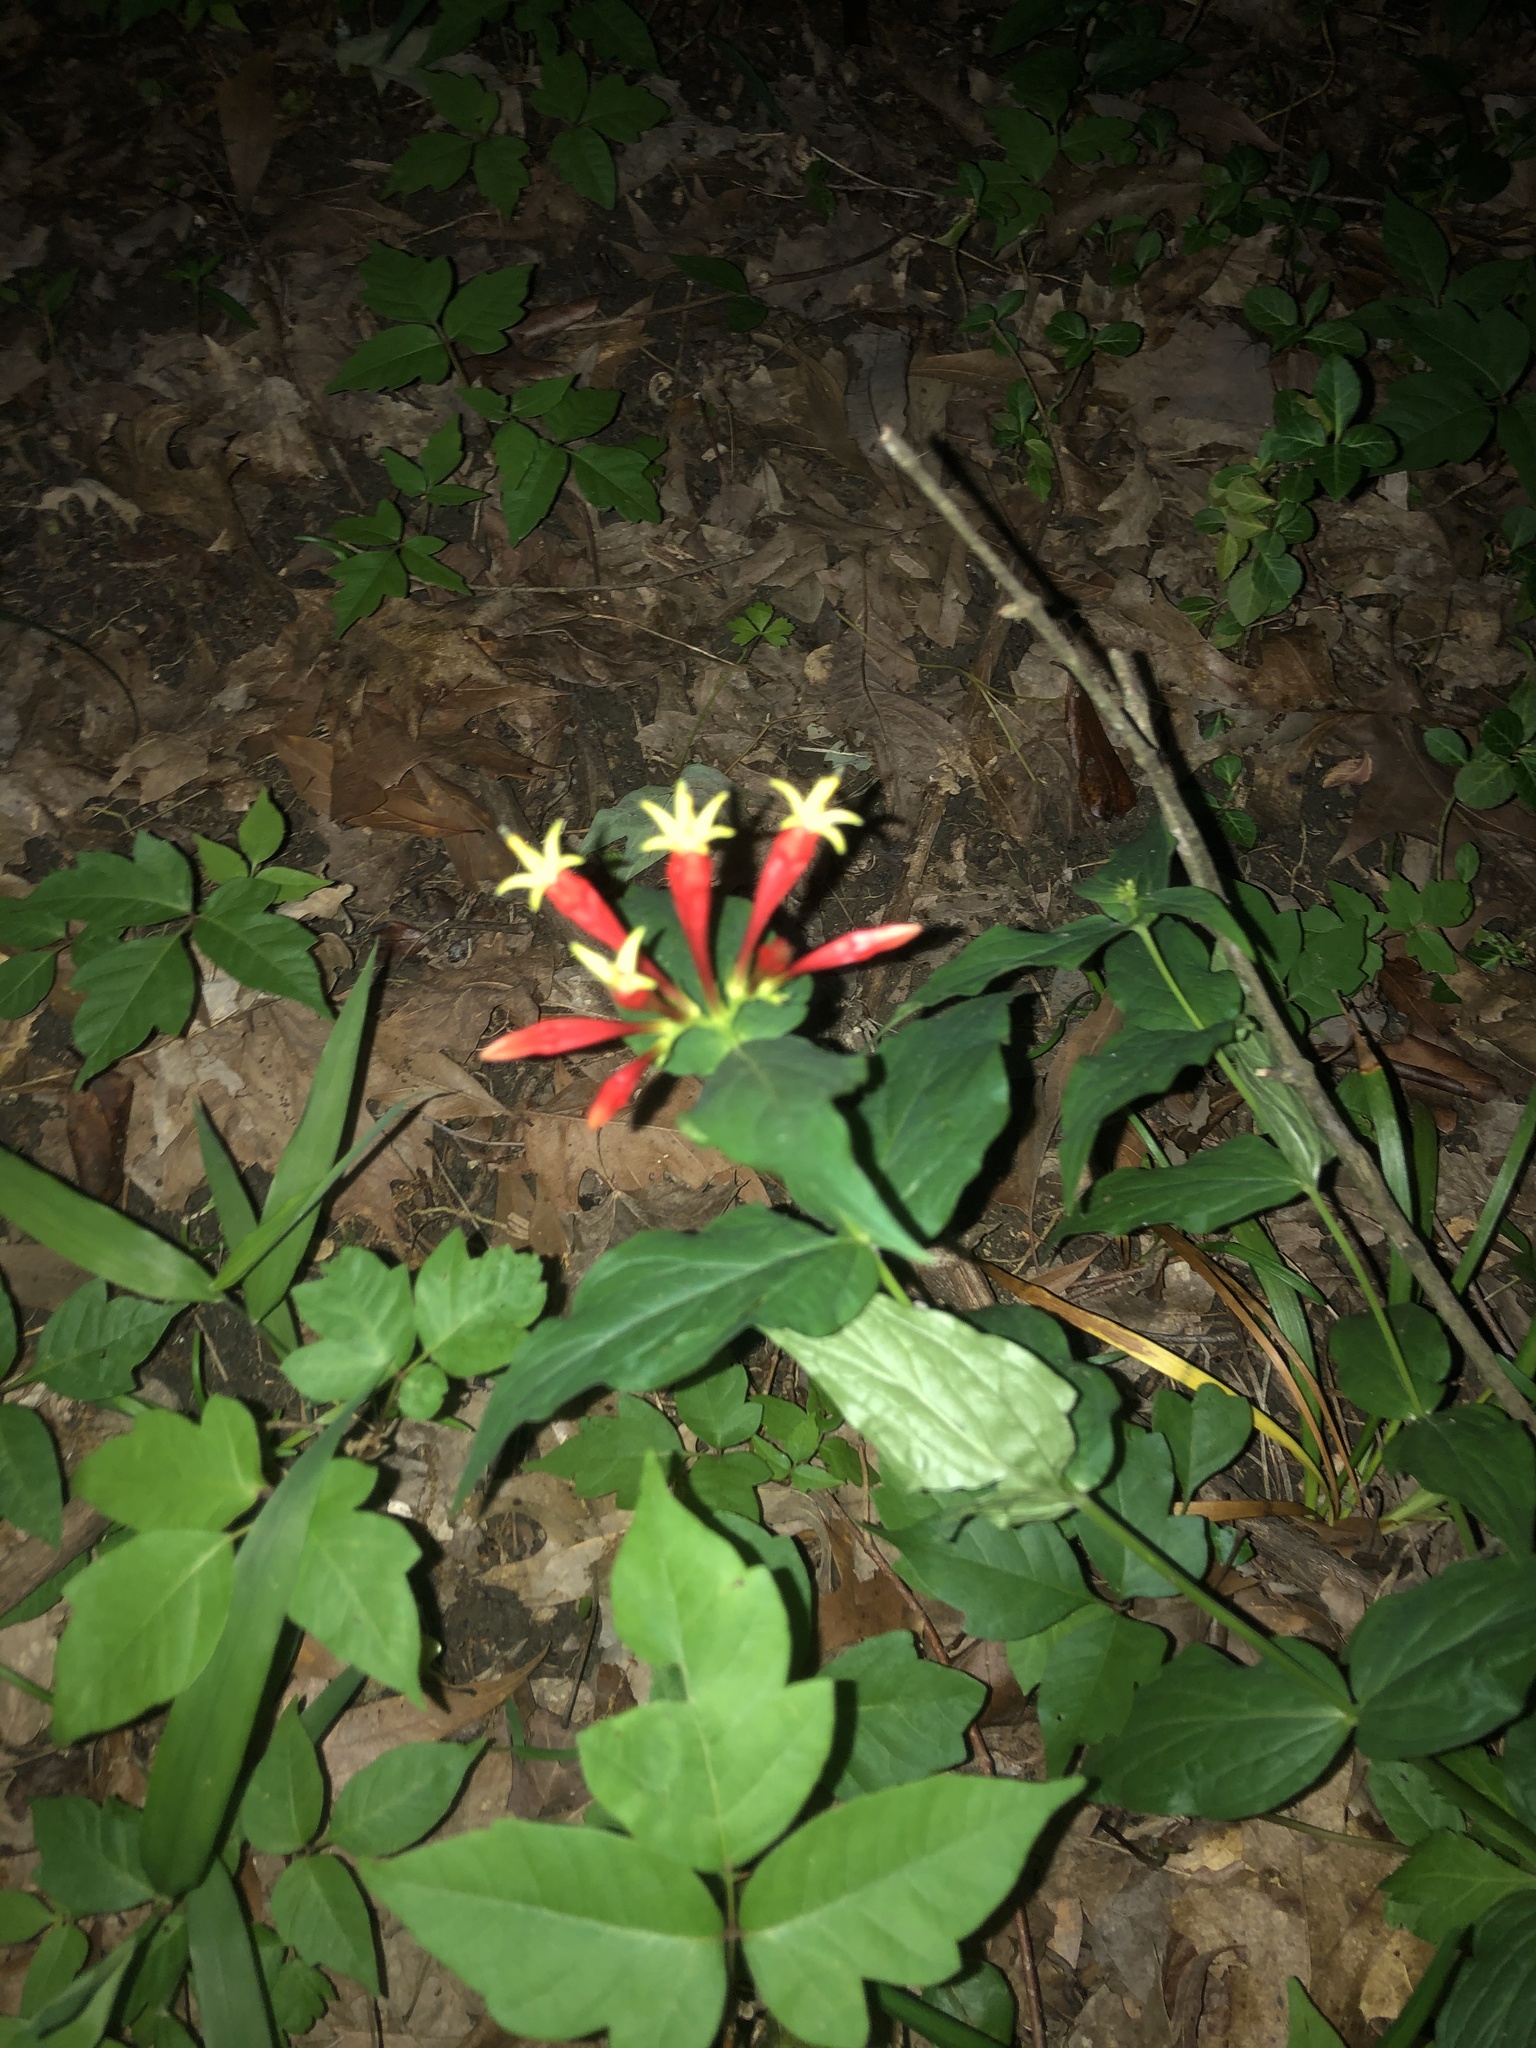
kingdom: Plantae
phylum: Tracheophyta
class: Magnoliopsida
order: Gentianales
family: Loganiaceae
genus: Spigelia
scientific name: Spigelia marilandica
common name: Indian-pink
